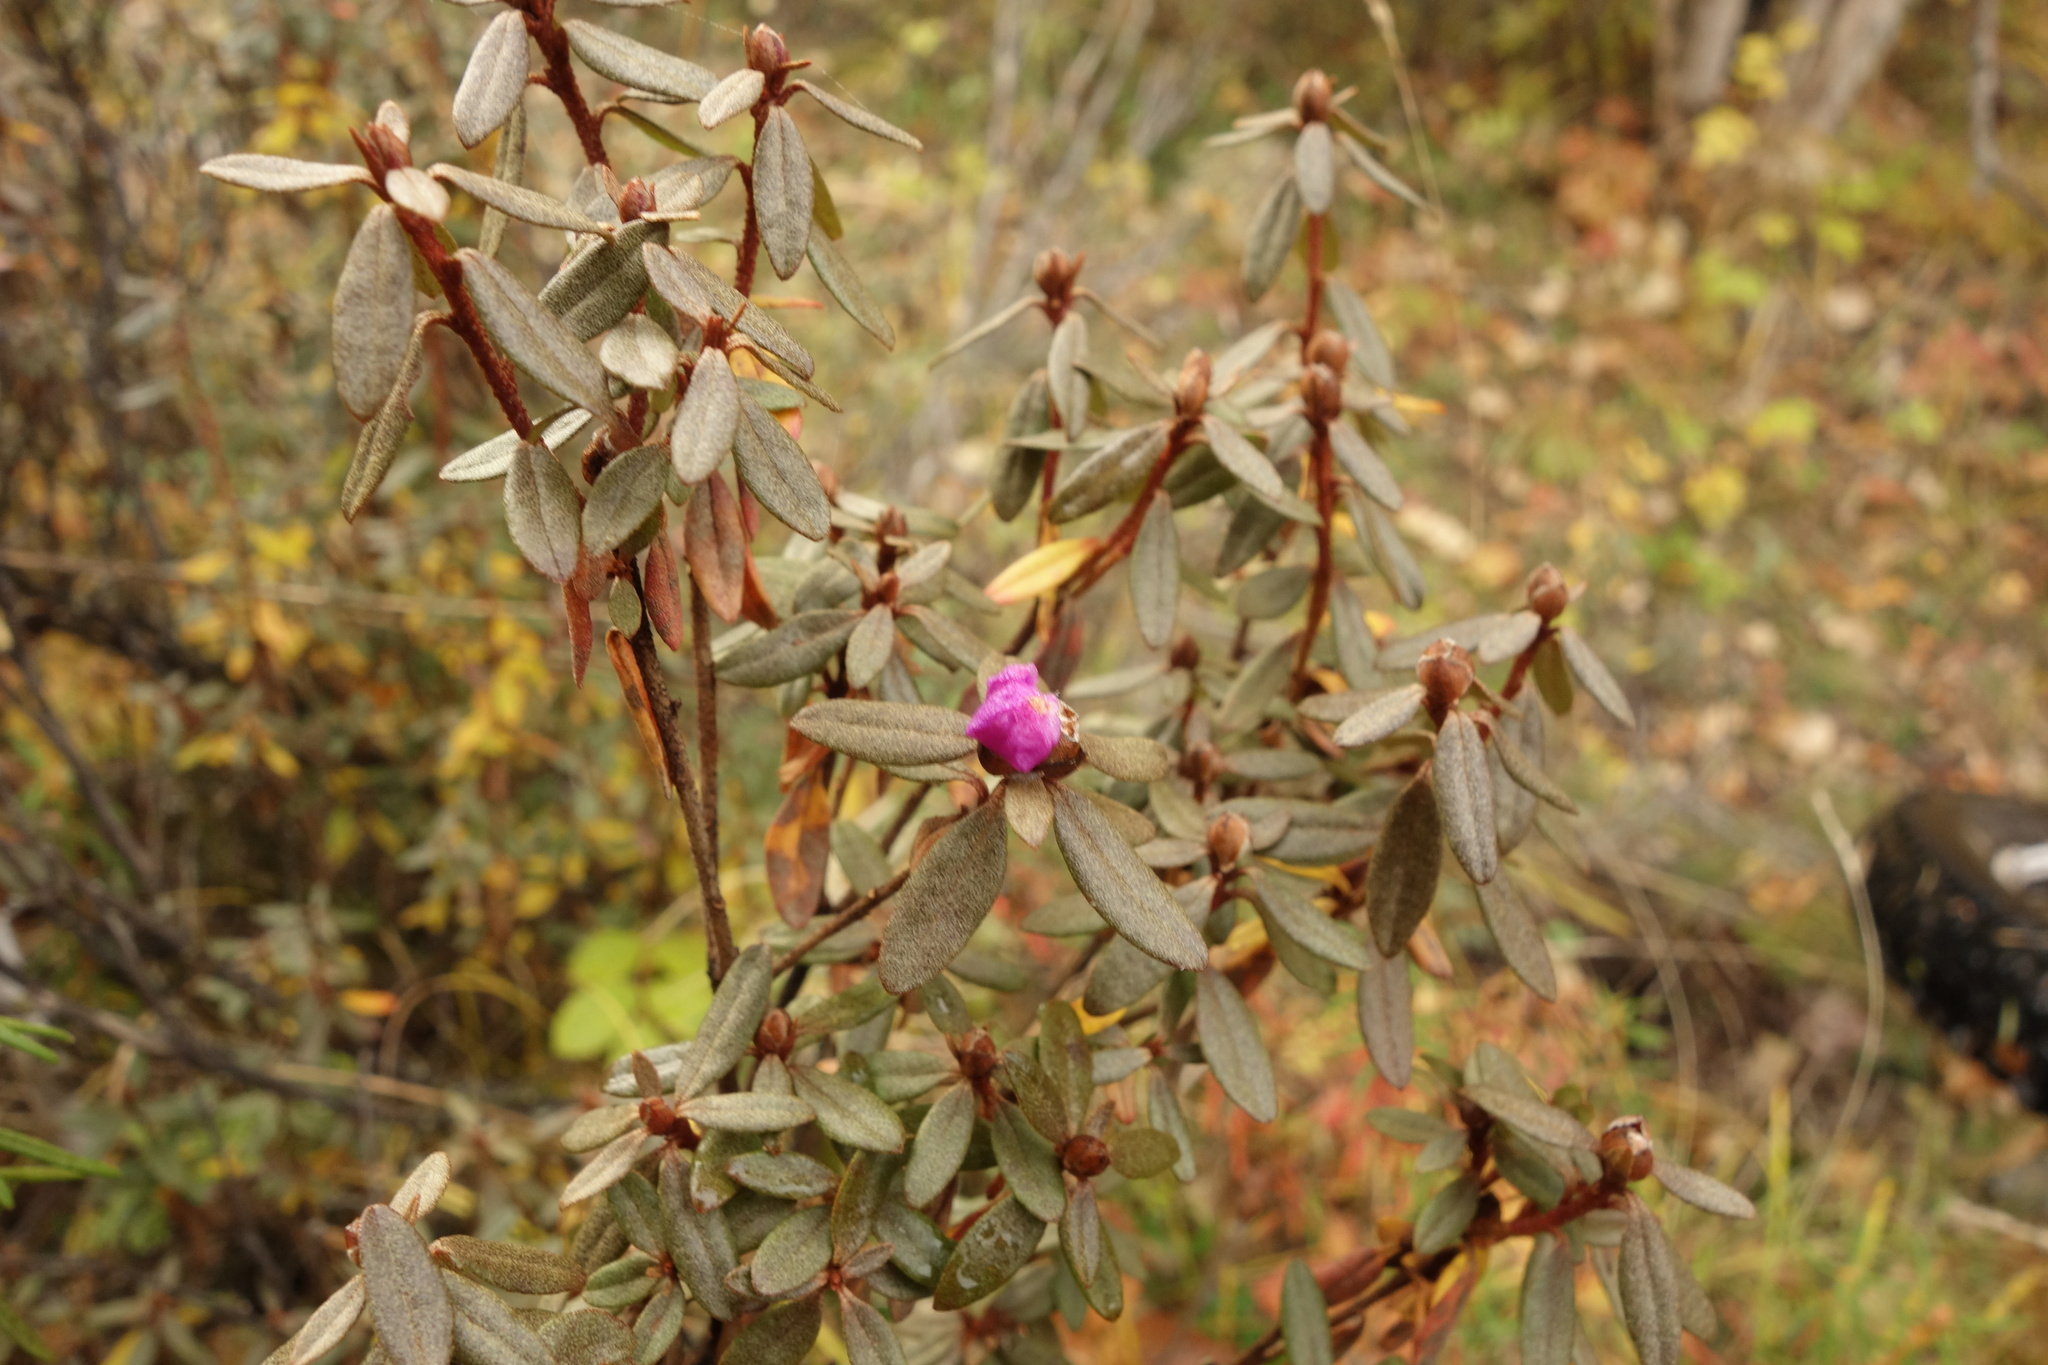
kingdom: Plantae
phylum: Tracheophyta
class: Magnoliopsida
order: Ericales
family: Ericaceae
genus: Rhododendron
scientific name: Rhododendron parvifolium
